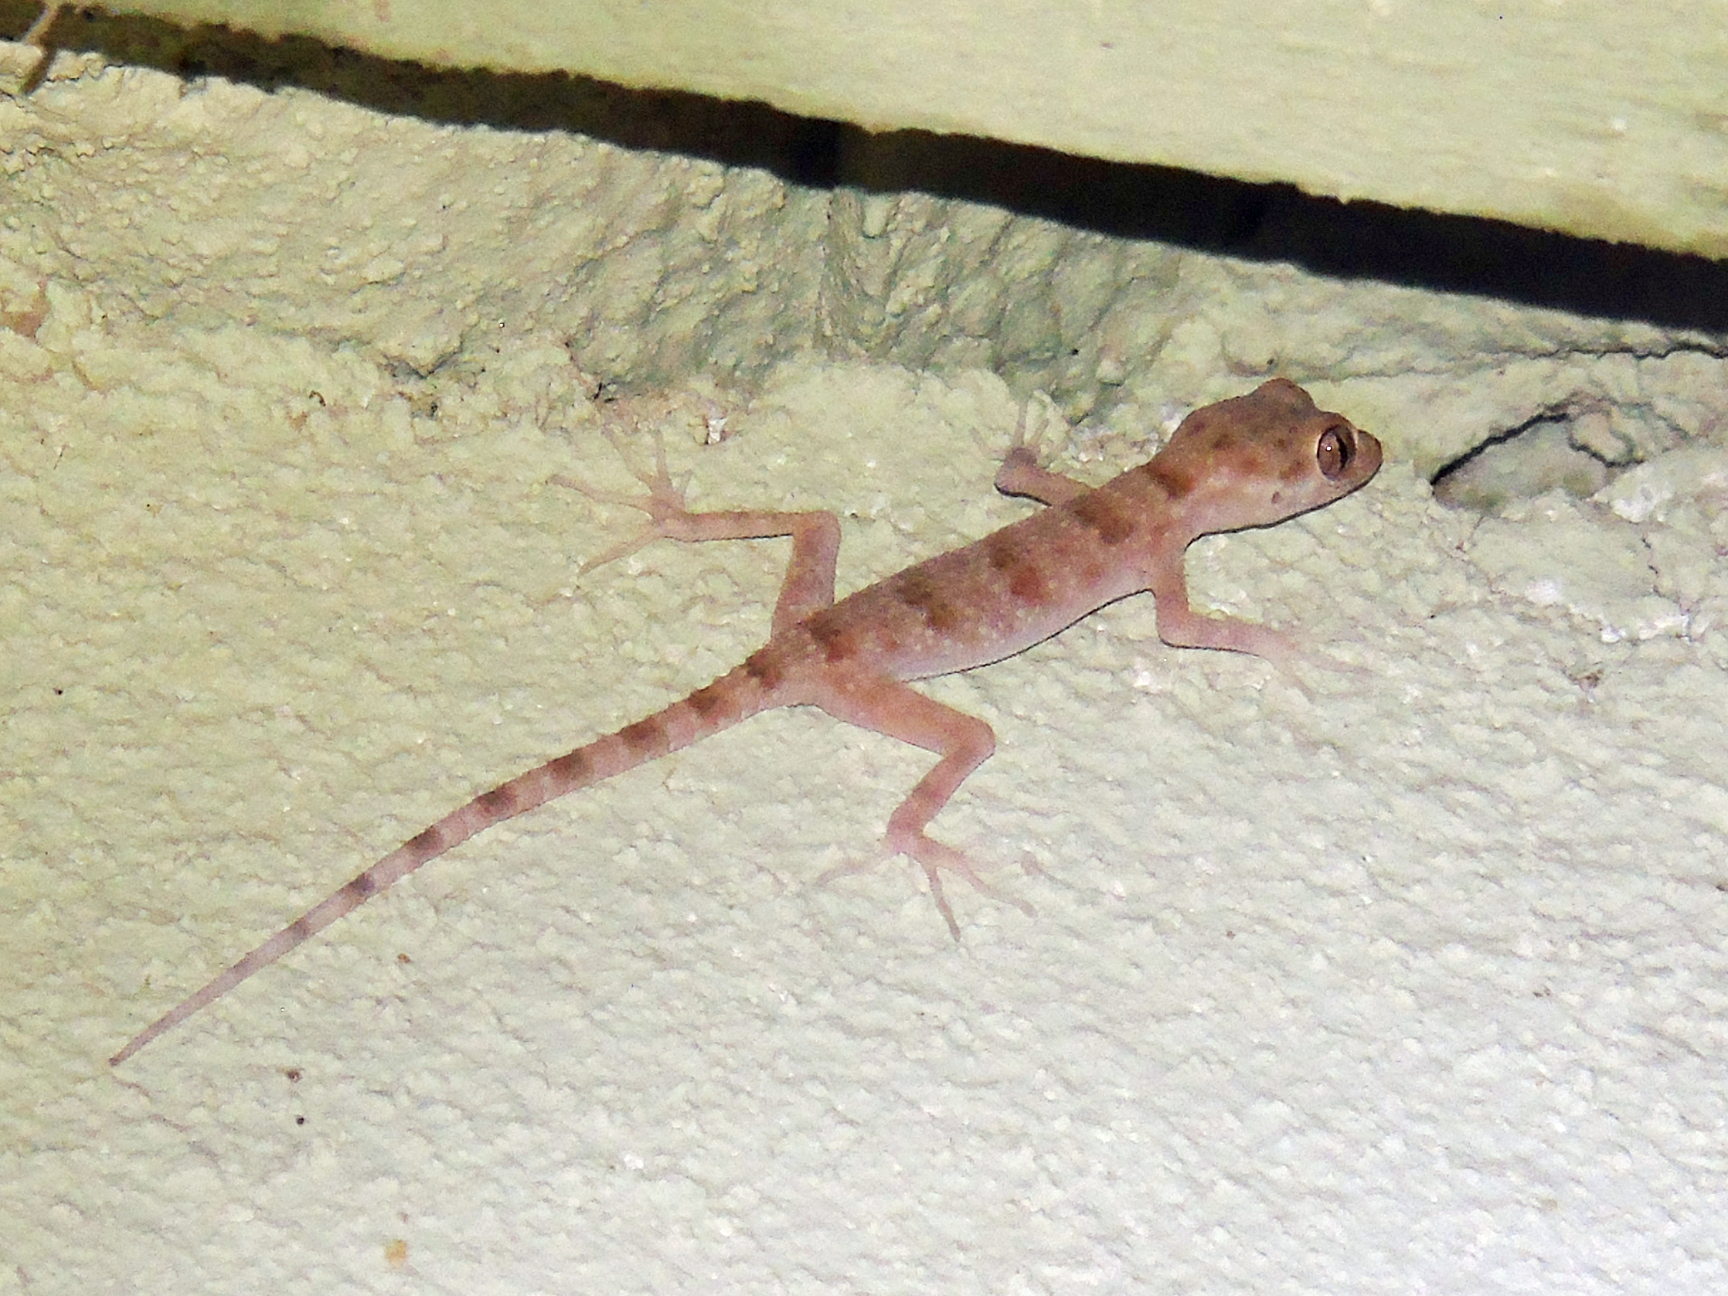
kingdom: Animalia
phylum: Chordata
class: Squamata
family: Gekkonidae
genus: Tenuidactylus
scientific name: Tenuidactylus bogdanovi
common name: Bogdanov’s thin-toed gecko
